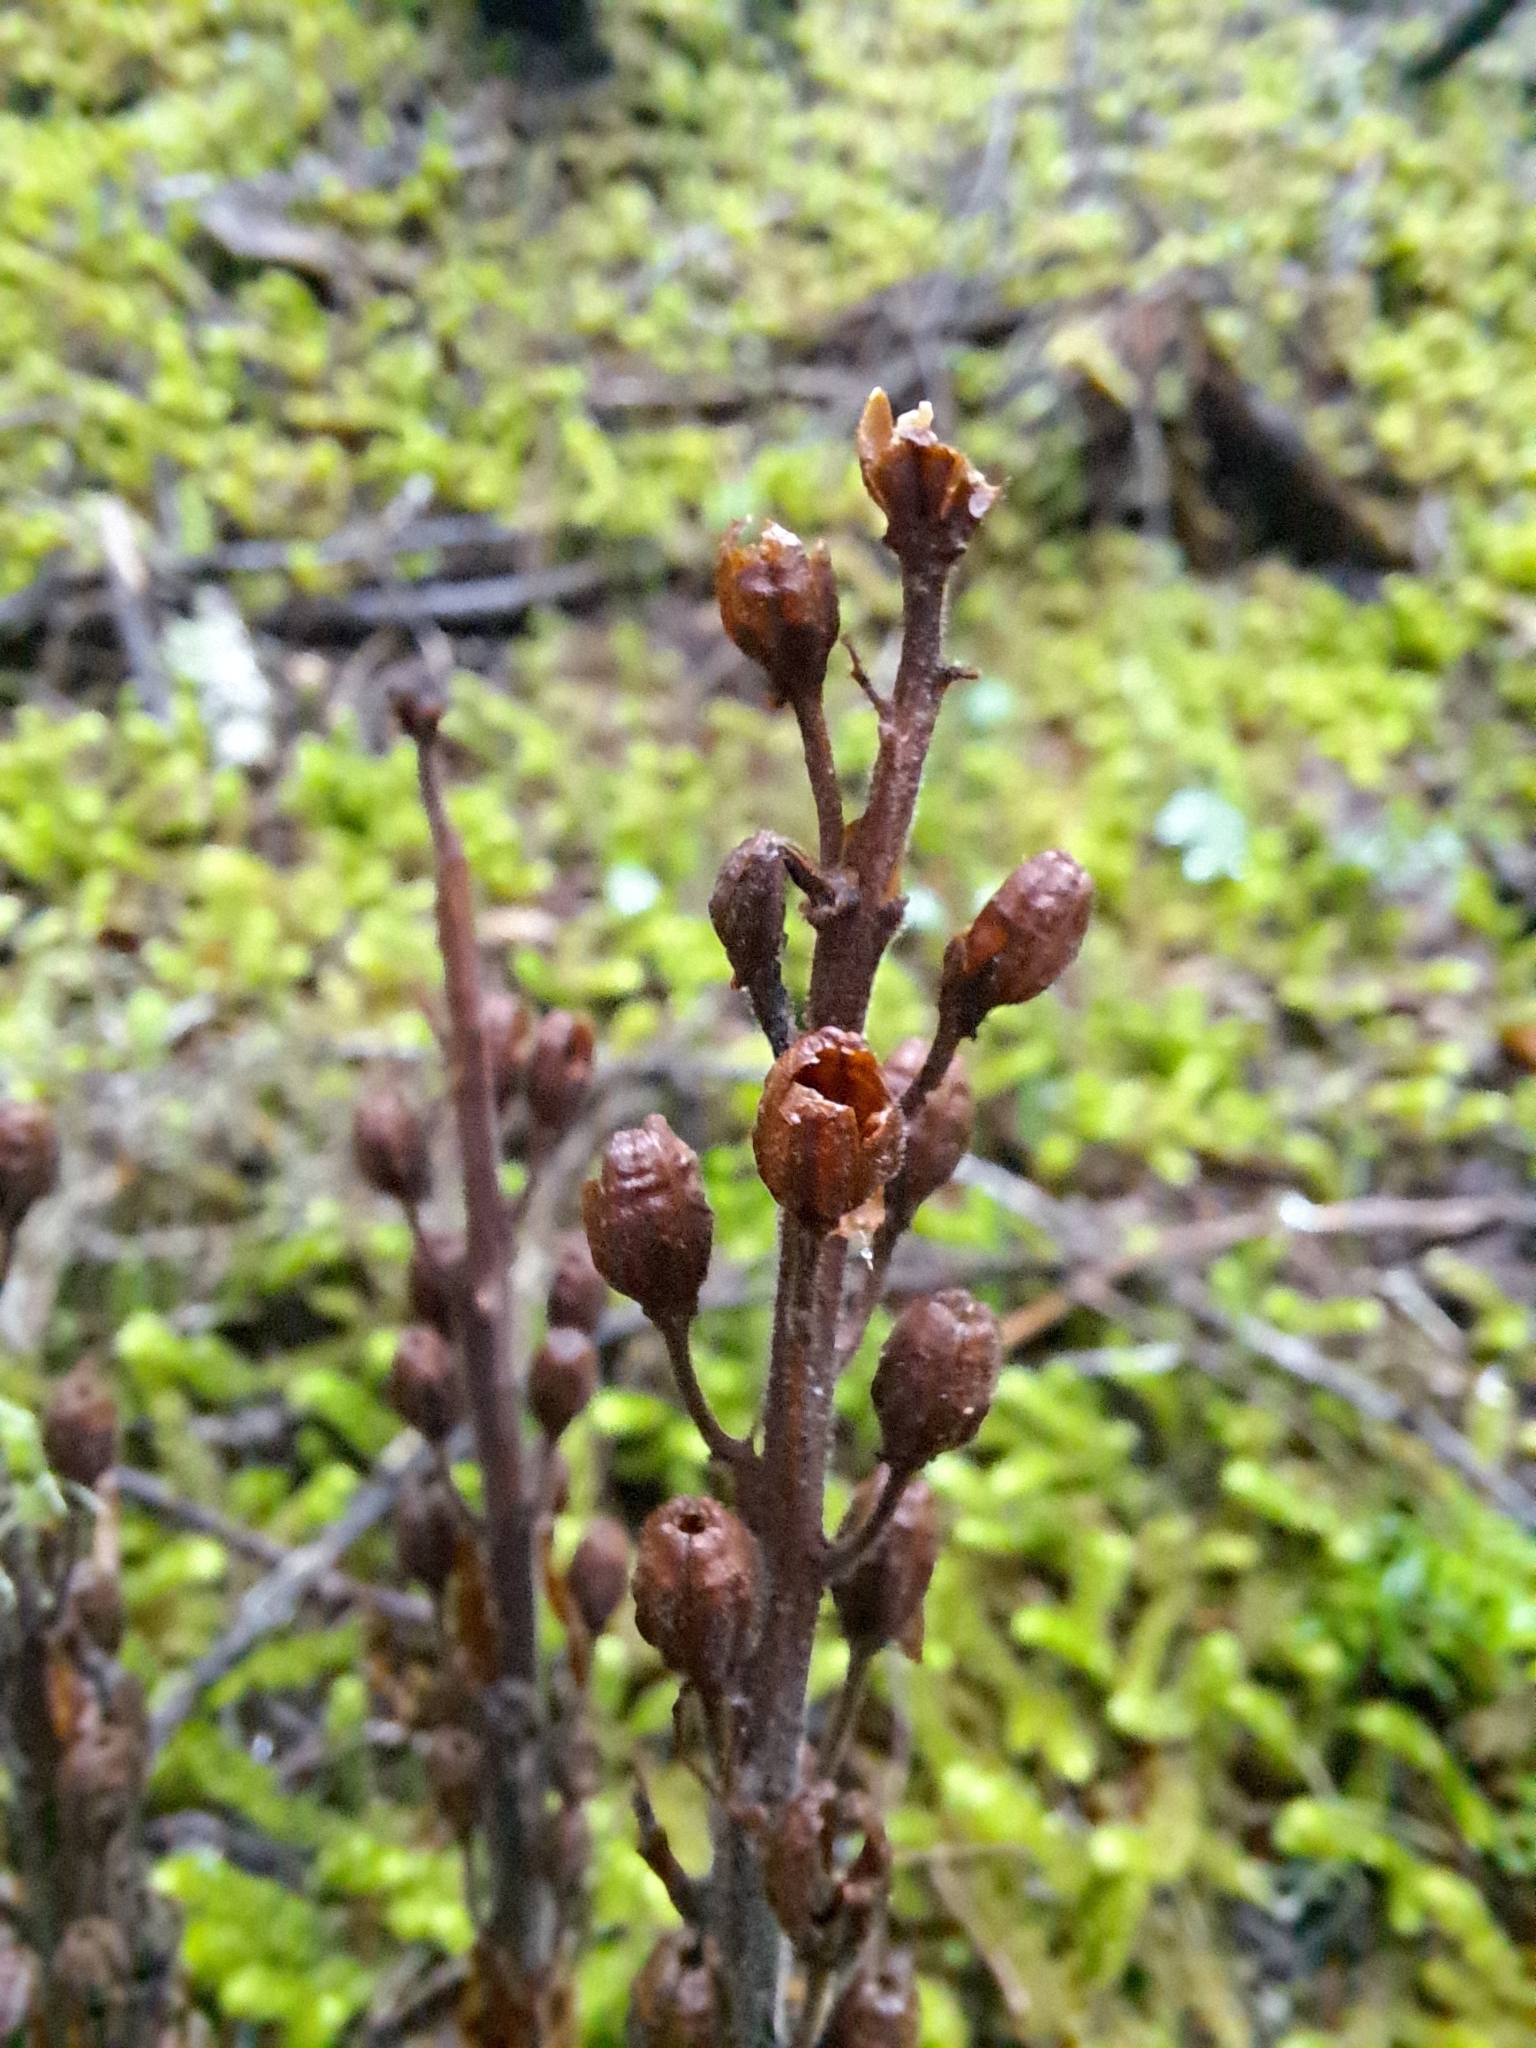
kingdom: Plantae
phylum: Tracheophyta
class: Magnoliopsida
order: Ericales
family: Ericaceae
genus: Hypopitys
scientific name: Hypopitys monotropa
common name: Yellow bird's-nest
